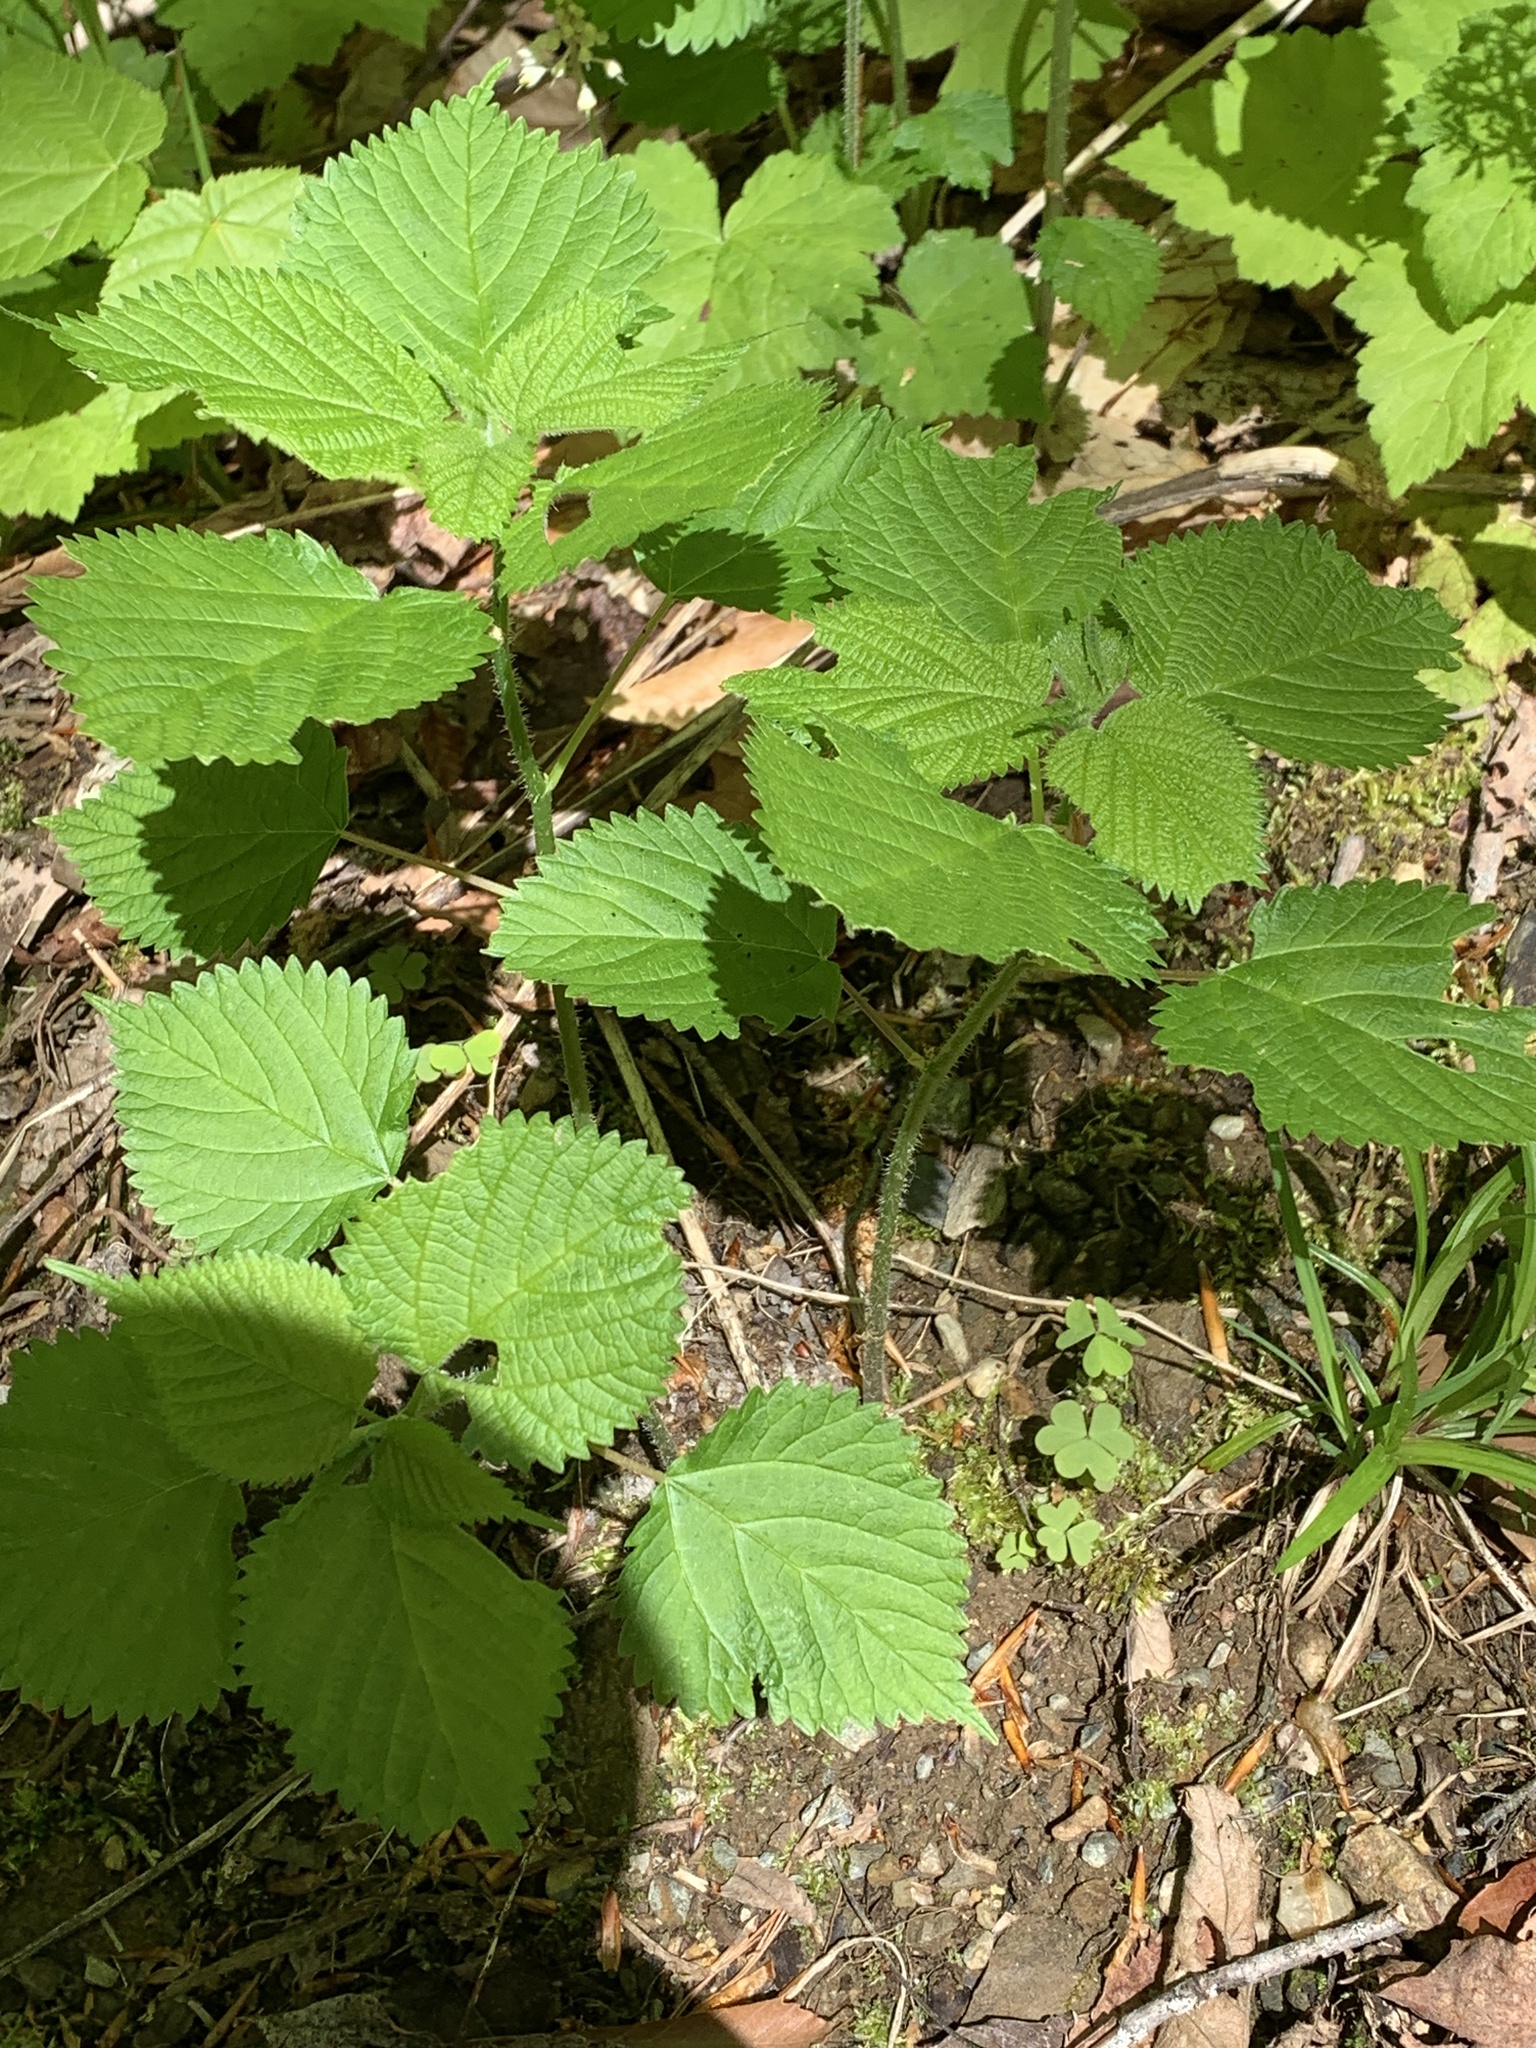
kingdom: Plantae
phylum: Tracheophyta
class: Magnoliopsida
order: Rosales
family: Urticaceae
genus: Laportea
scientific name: Laportea canadensis
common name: Canada nettle
